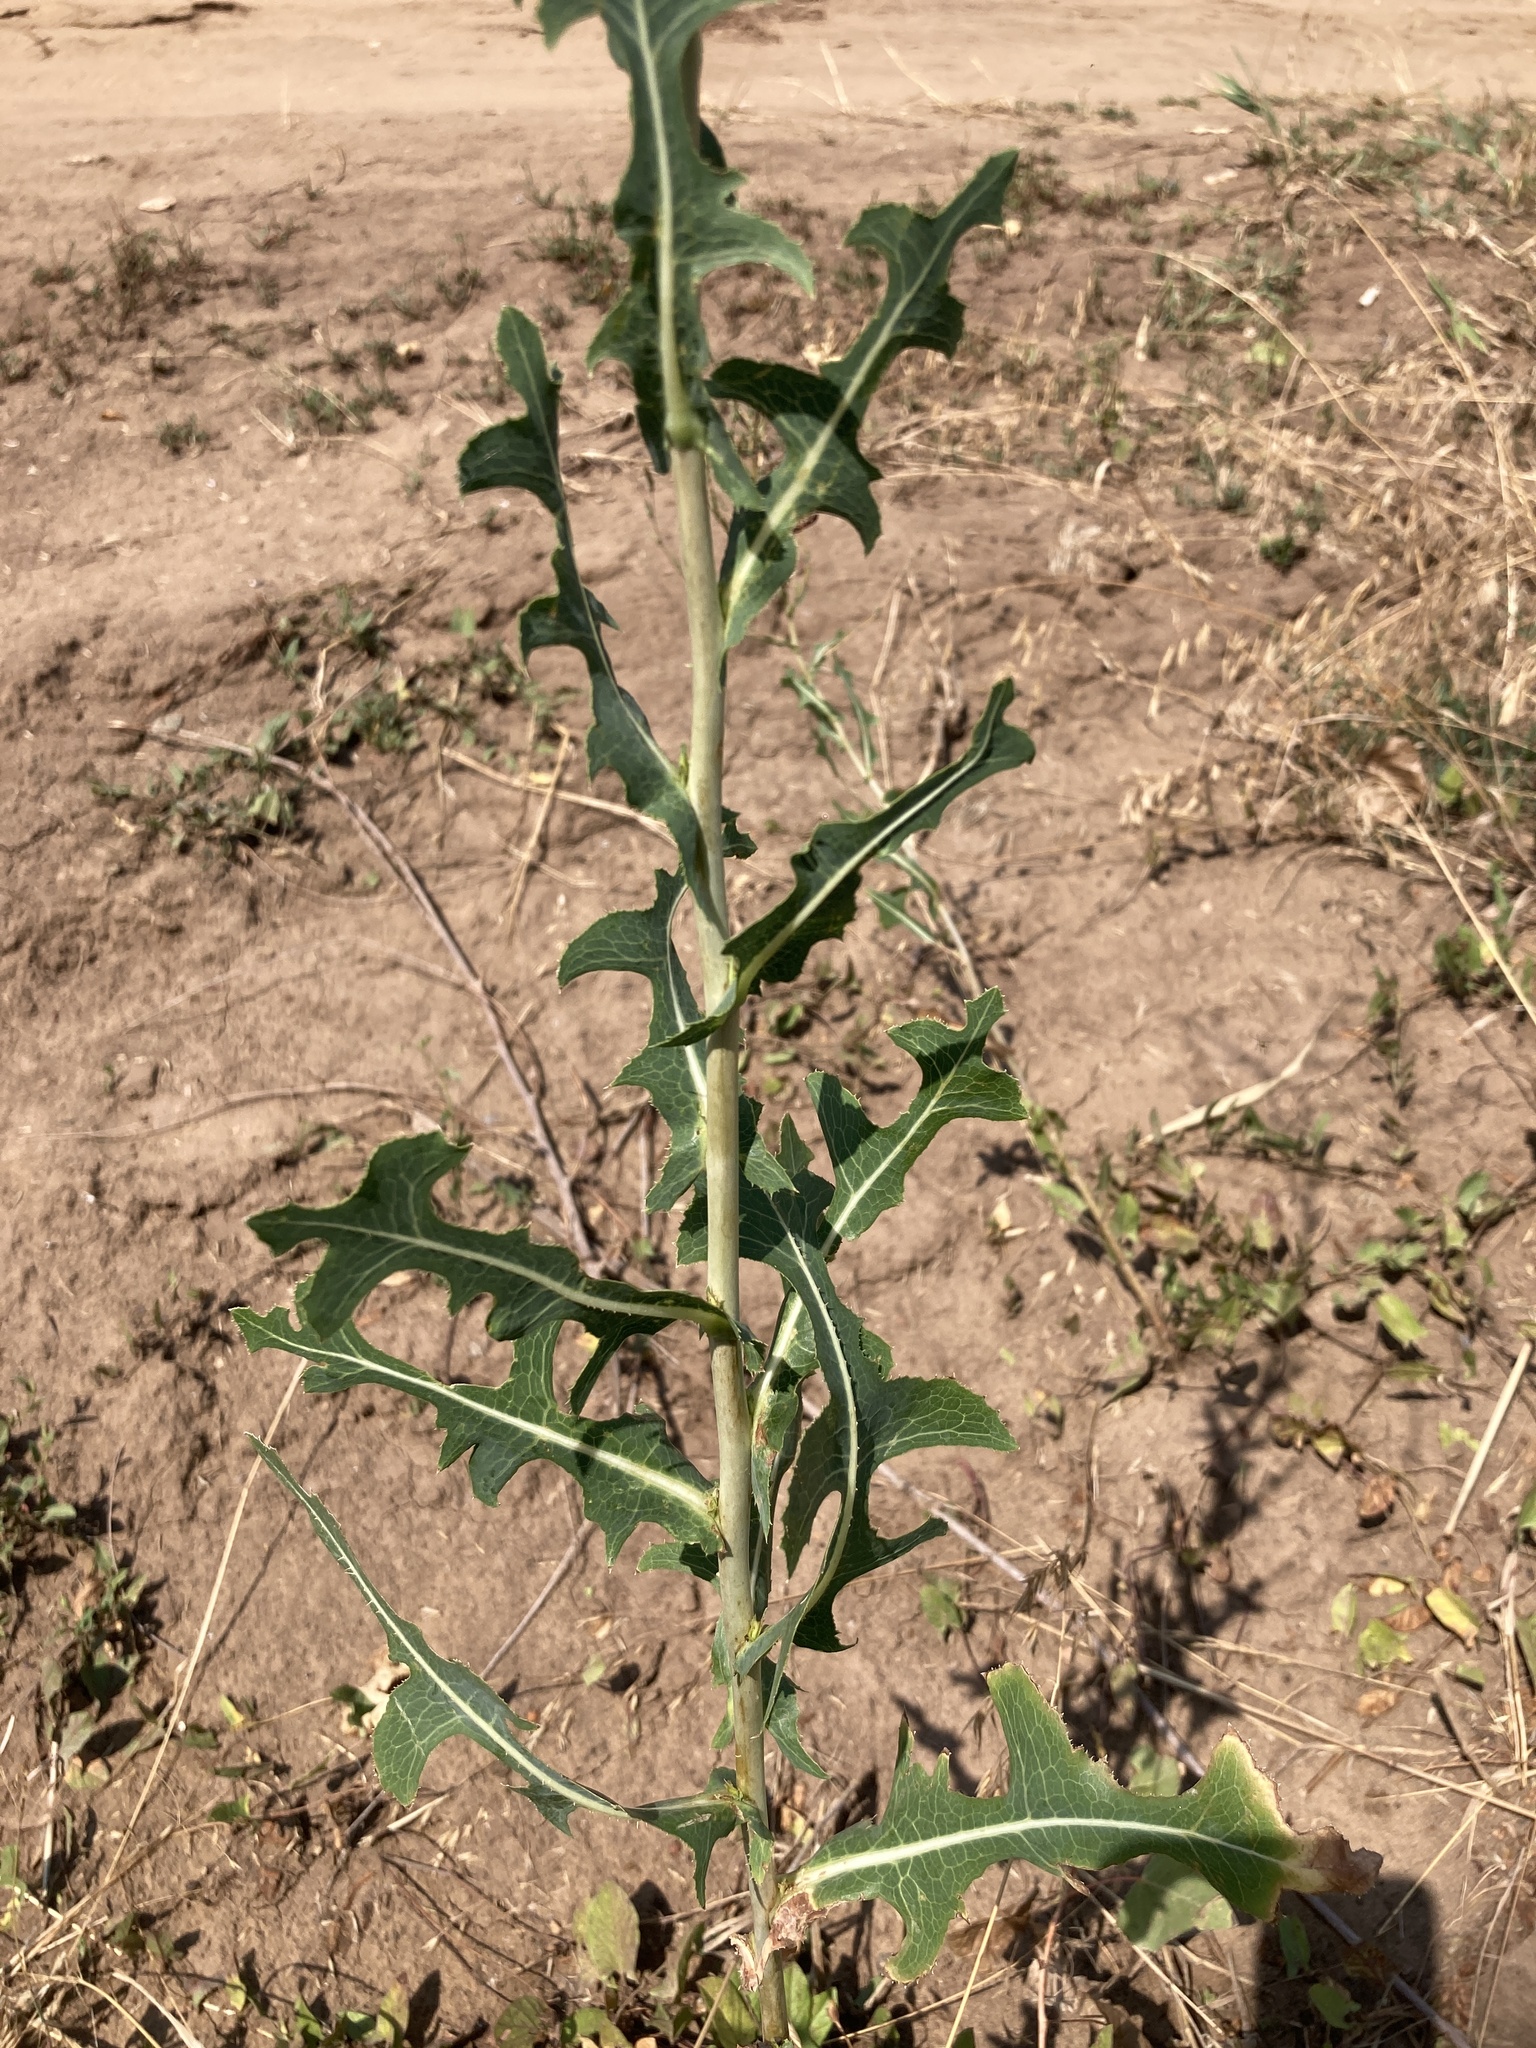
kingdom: Plantae
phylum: Tracheophyta
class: Magnoliopsida
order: Asterales
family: Asteraceae
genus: Lactuca
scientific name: Lactuca serriola
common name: Prickly lettuce
